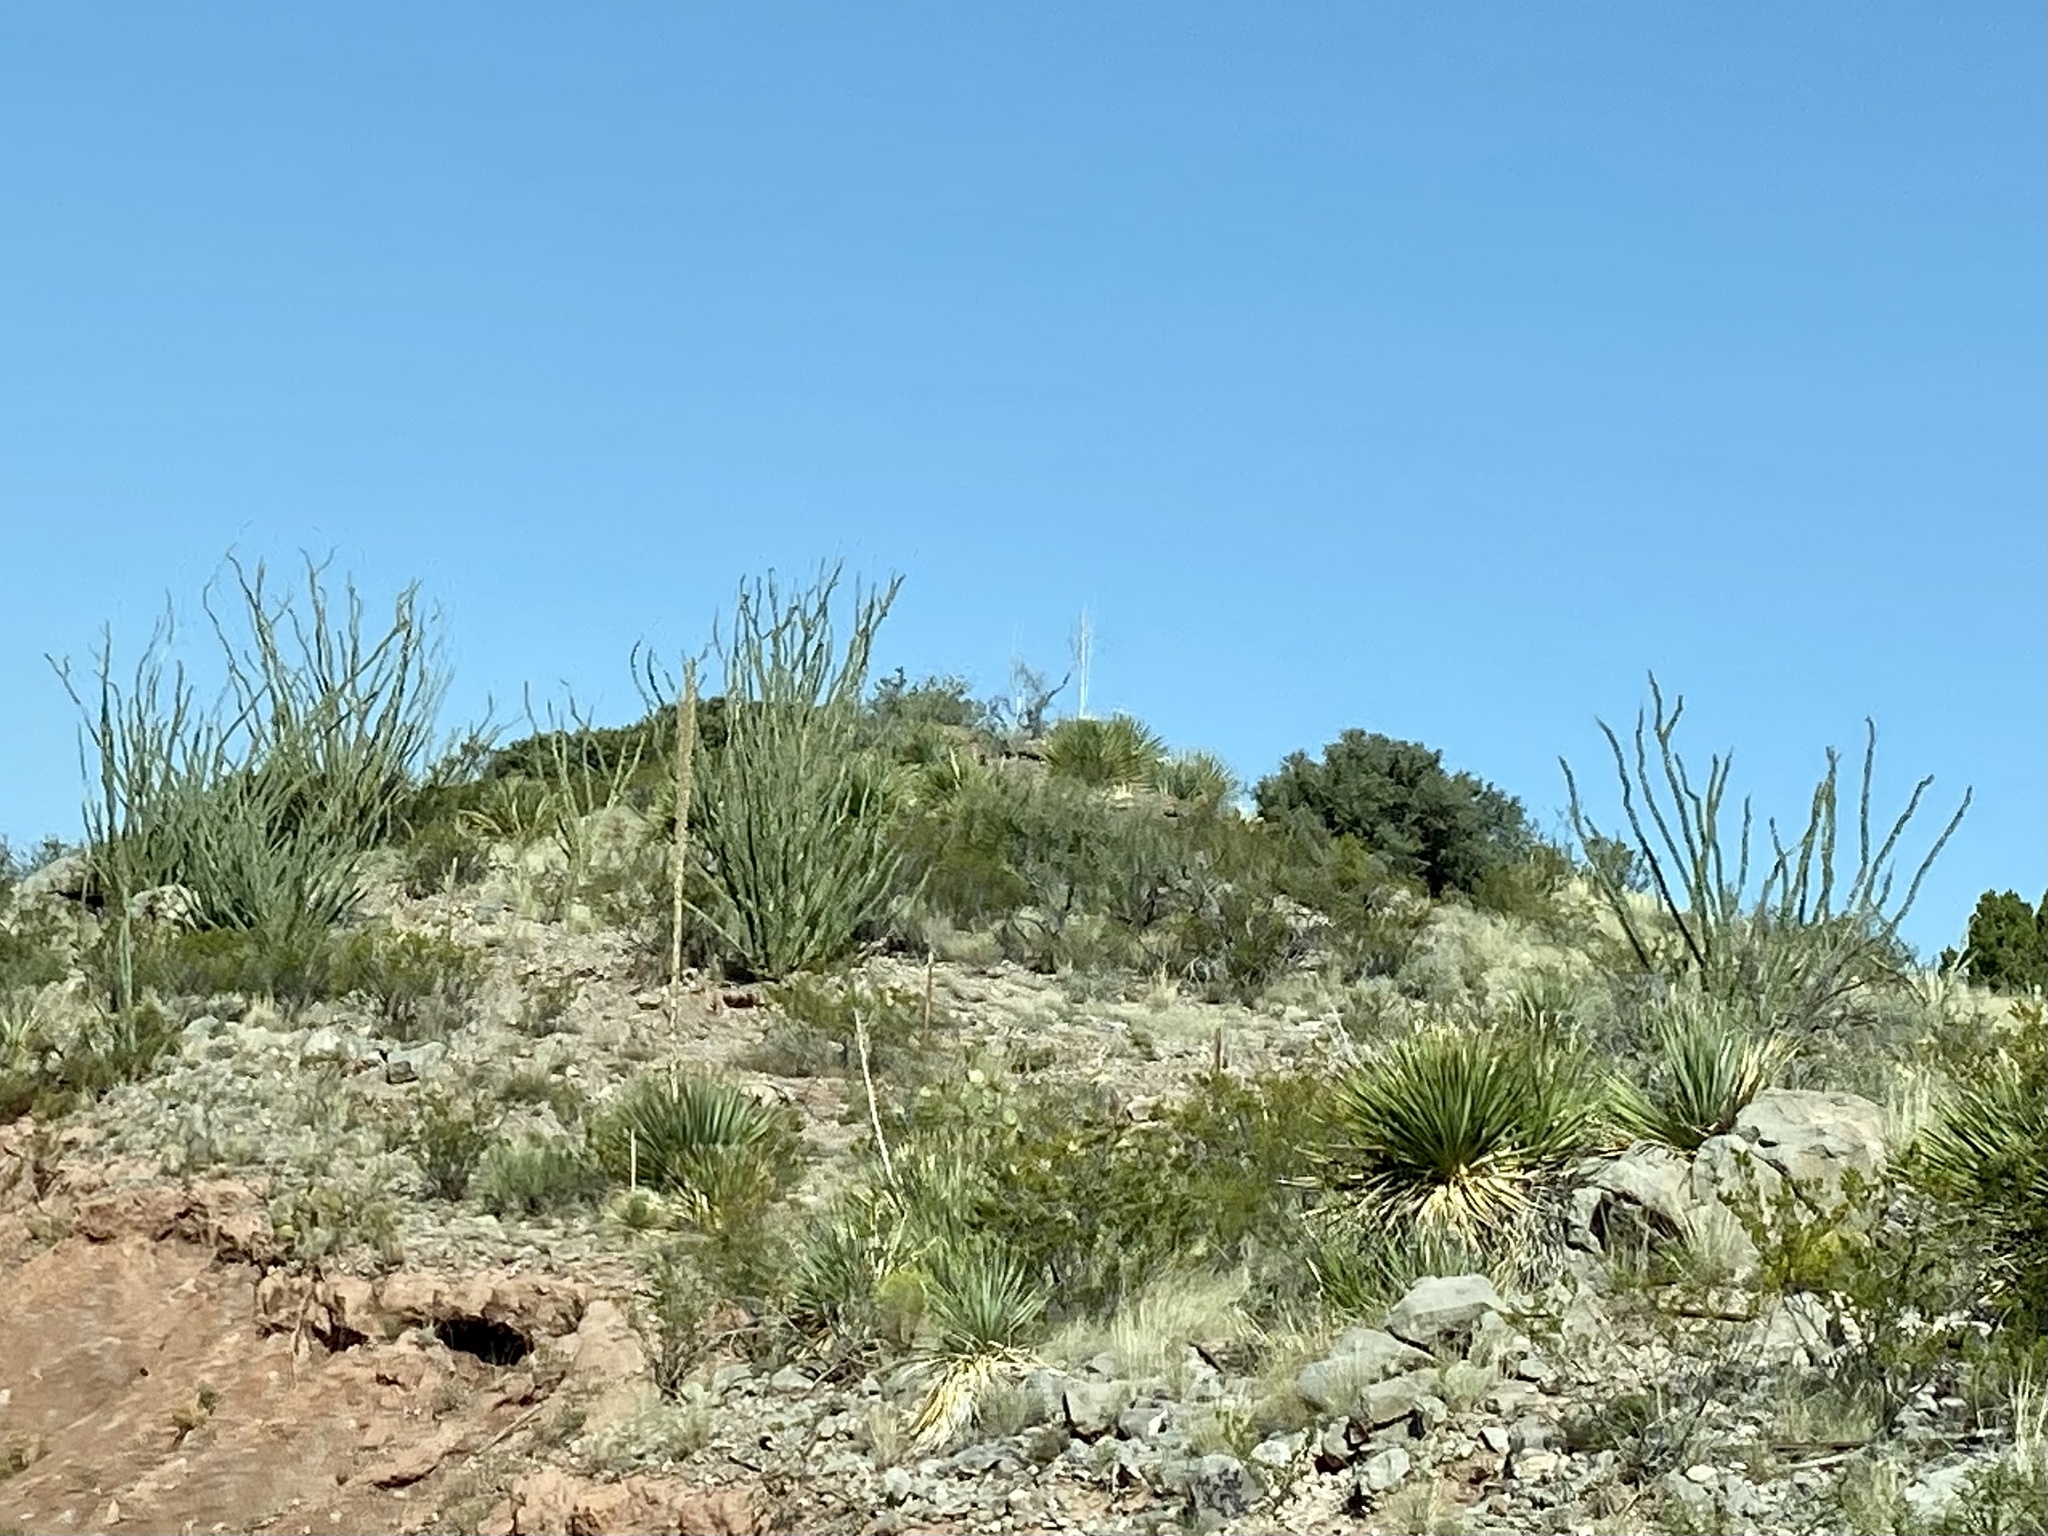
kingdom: Plantae
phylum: Tracheophyta
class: Magnoliopsida
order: Ericales
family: Fouquieriaceae
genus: Fouquieria
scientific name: Fouquieria splendens
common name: Vine-cactus
